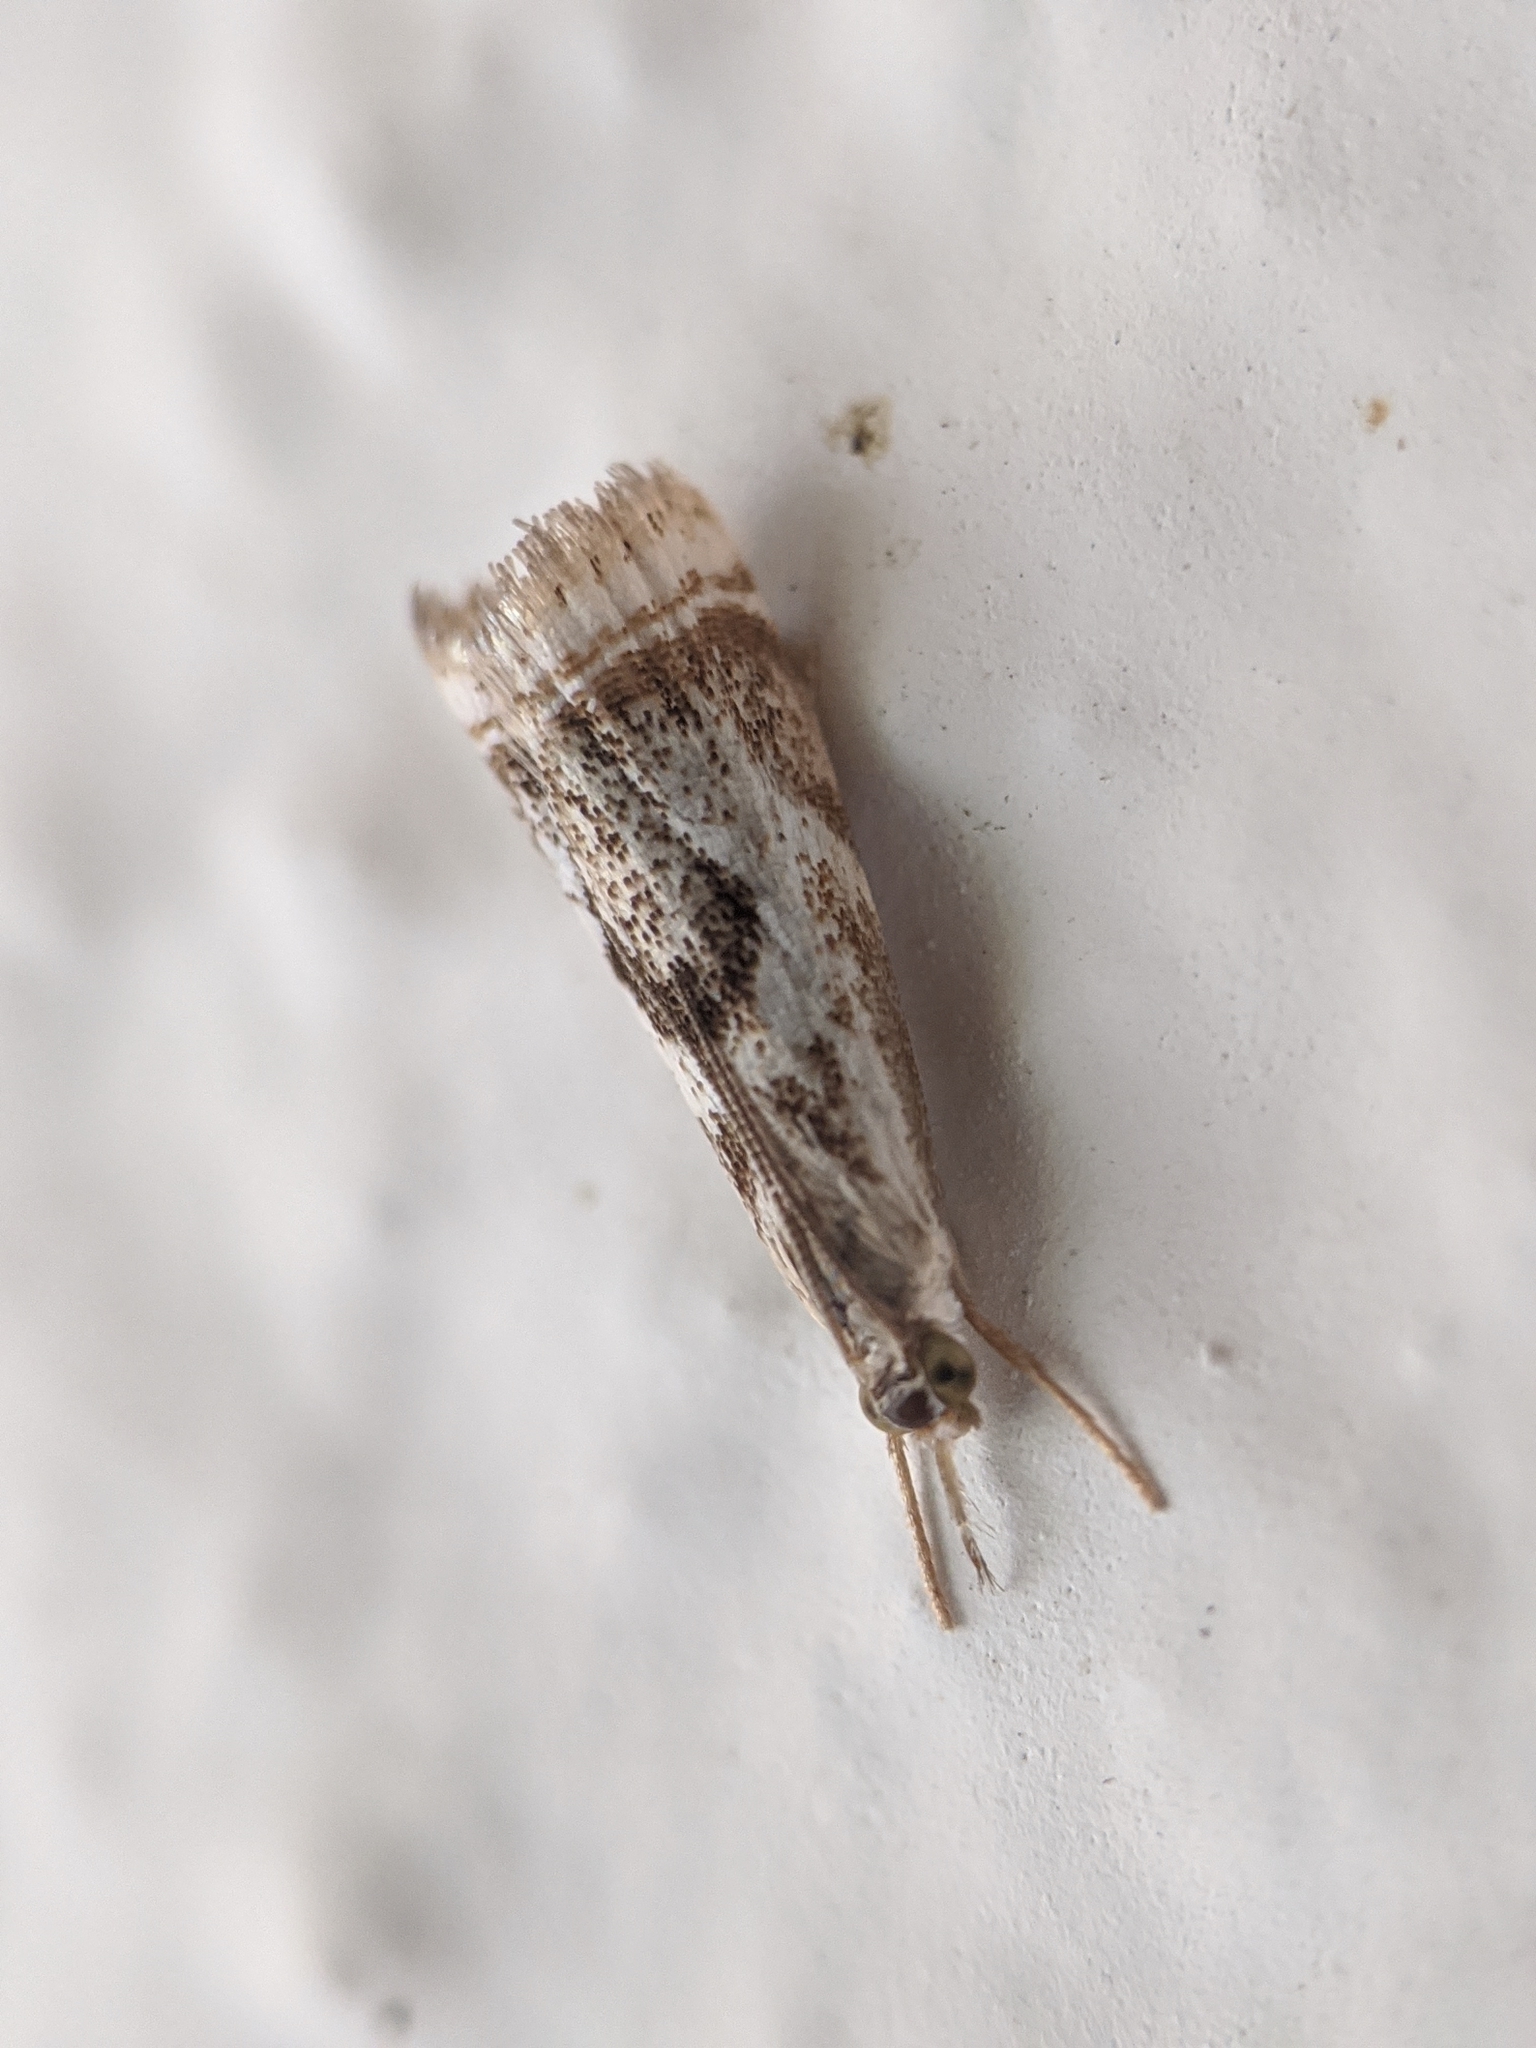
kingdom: Animalia
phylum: Arthropoda
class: Insecta
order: Lepidoptera
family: Crambidae
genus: Microcrambus
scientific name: Microcrambus elegans
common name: Elegant grass-veneer
